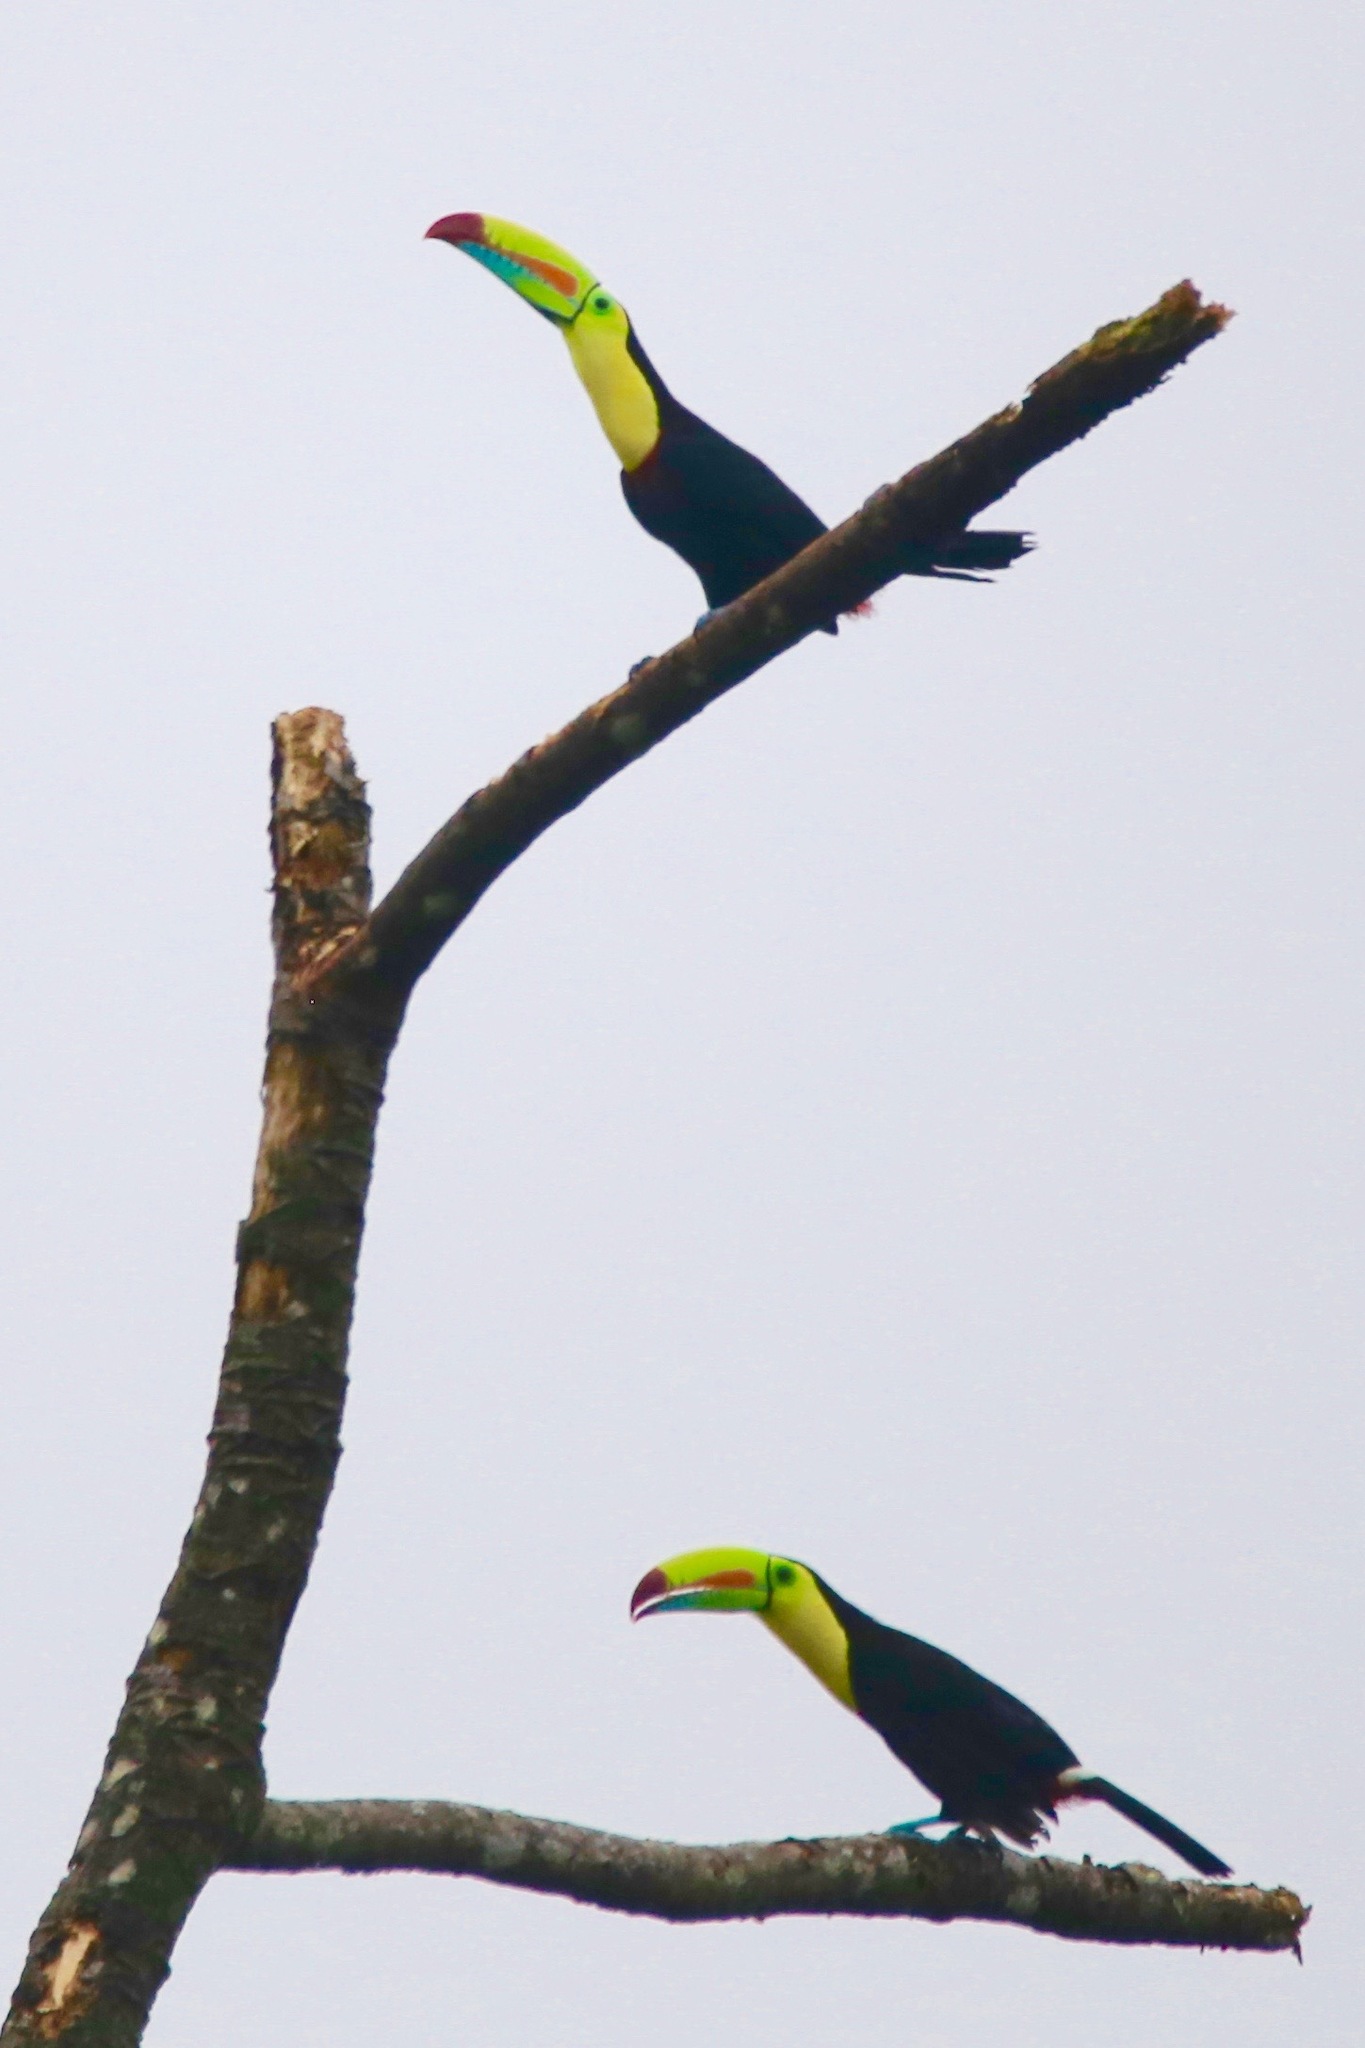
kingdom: Animalia
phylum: Chordata
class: Aves
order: Piciformes
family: Ramphastidae
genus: Ramphastos
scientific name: Ramphastos sulfuratus
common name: Keel-billed toucan
